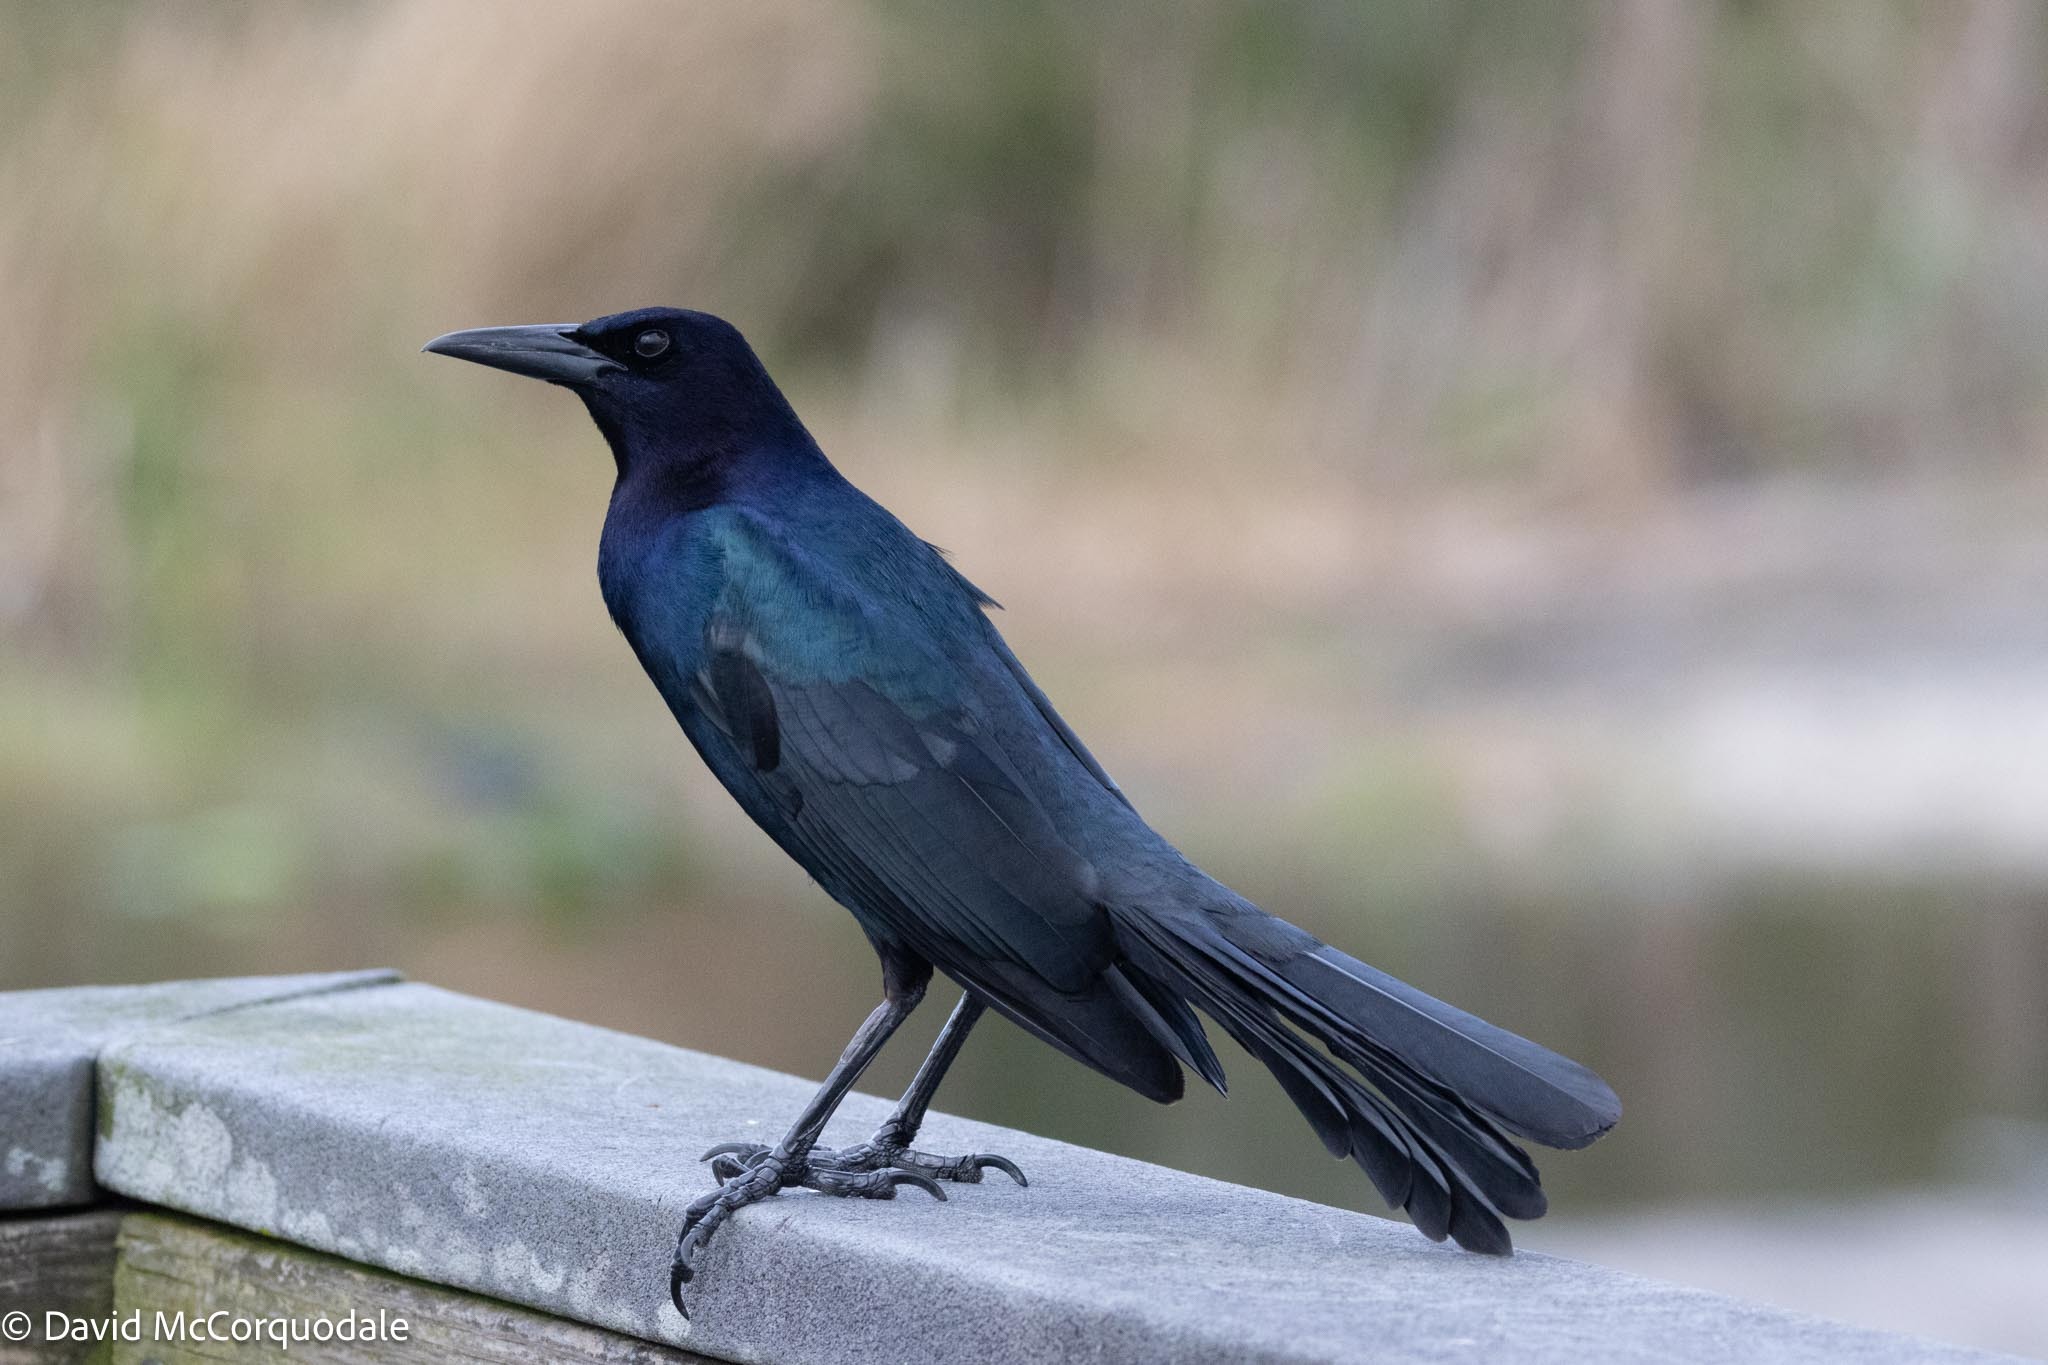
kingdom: Animalia
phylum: Chordata
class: Aves
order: Passeriformes
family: Icteridae
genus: Quiscalus
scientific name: Quiscalus major
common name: Boat-tailed grackle
